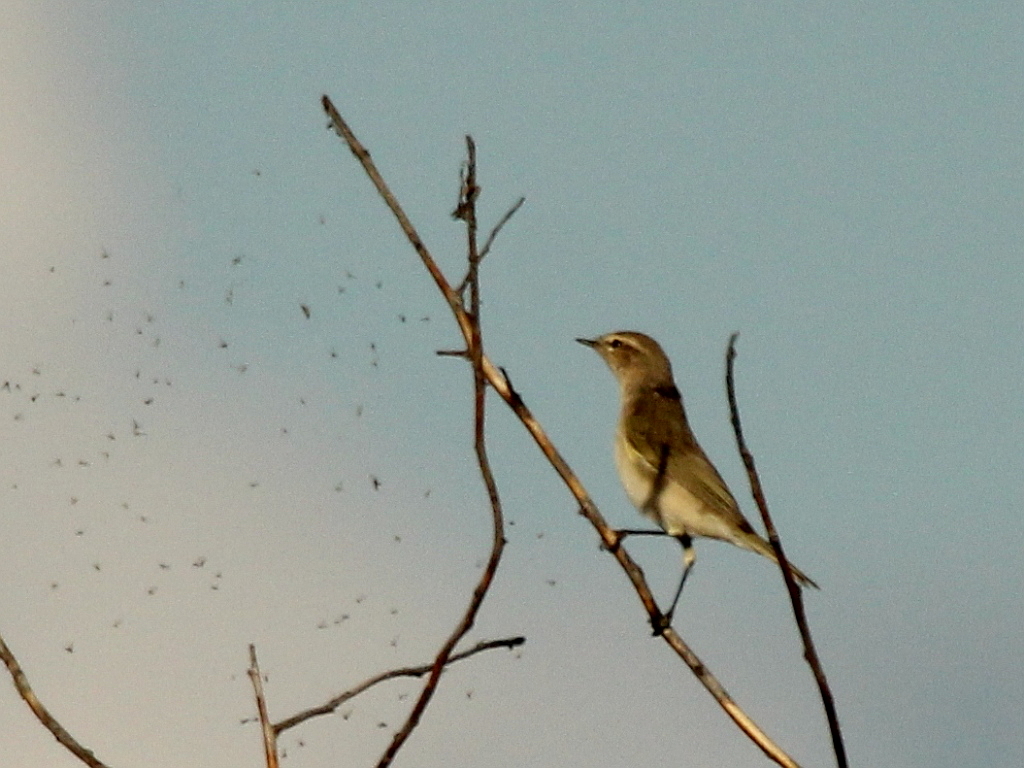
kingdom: Animalia
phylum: Chordata
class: Aves
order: Passeriformes
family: Phylloscopidae
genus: Phylloscopus
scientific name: Phylloscopus collybita
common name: Common chiffchaff
